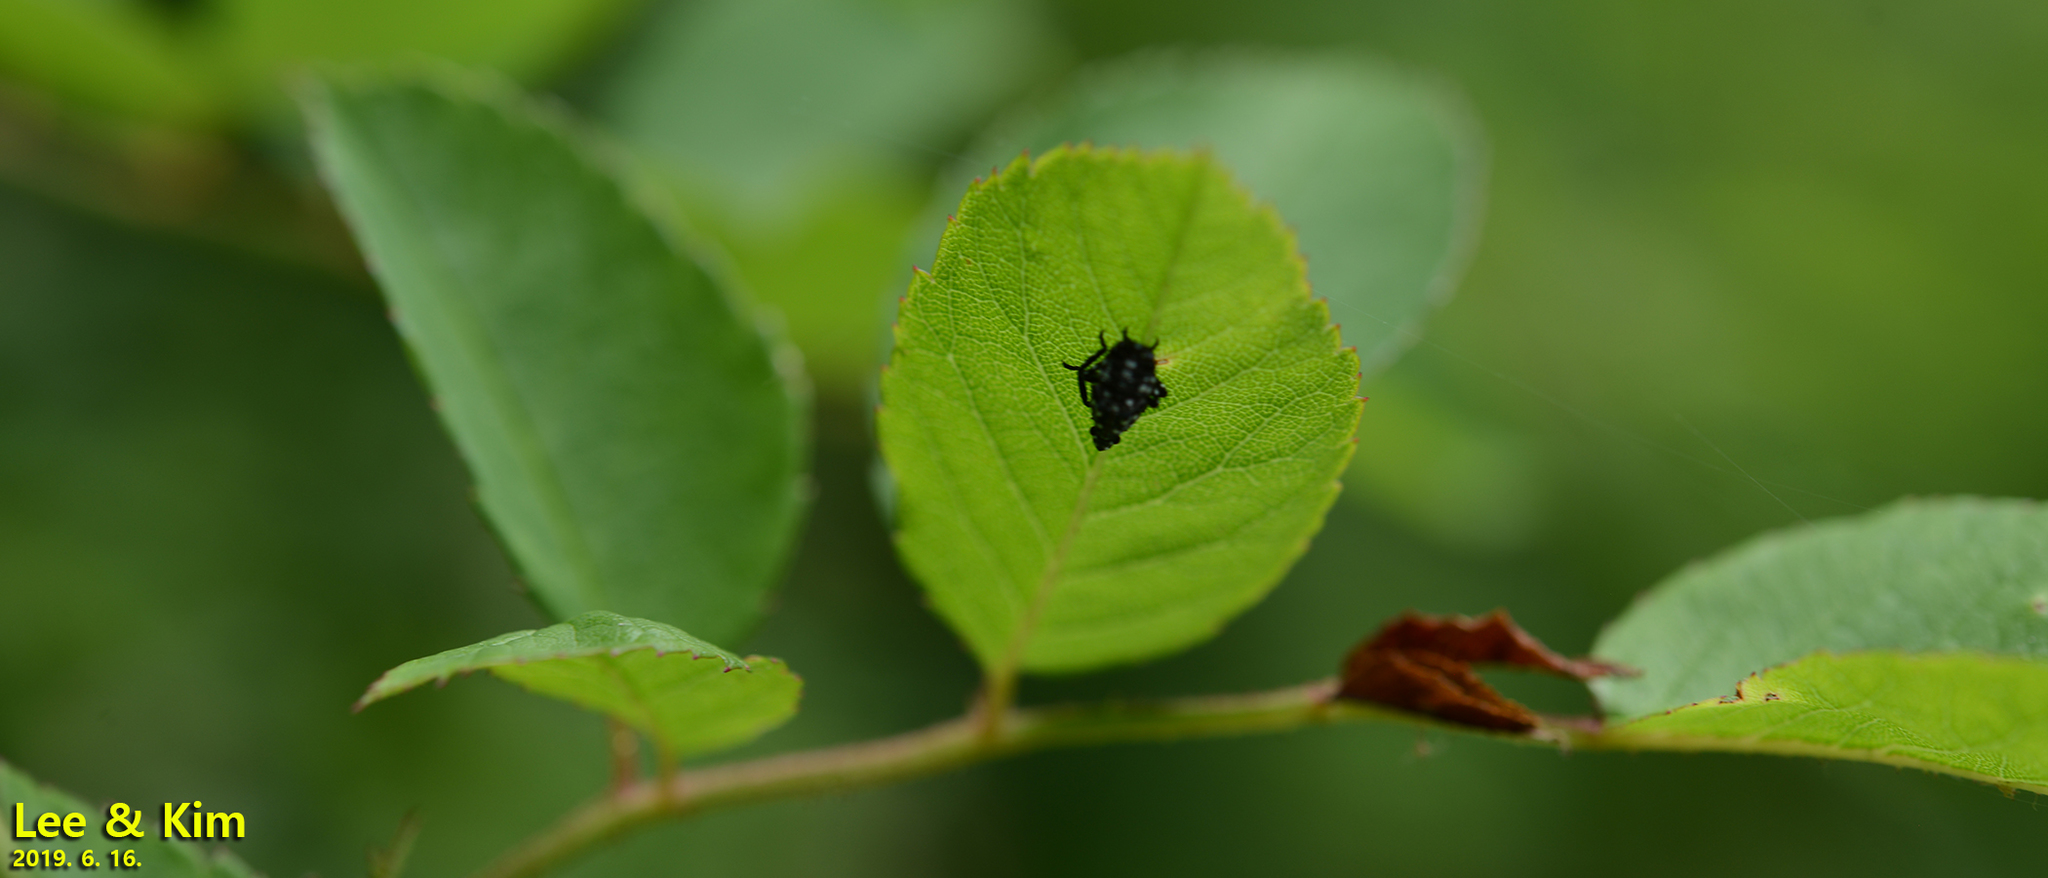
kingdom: Animalia
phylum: Arthropoda
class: Insecta
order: Hemiptera
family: Fulgoridae
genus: Lycorma
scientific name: Lycorma delicatula
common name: Spotted lanternfly
